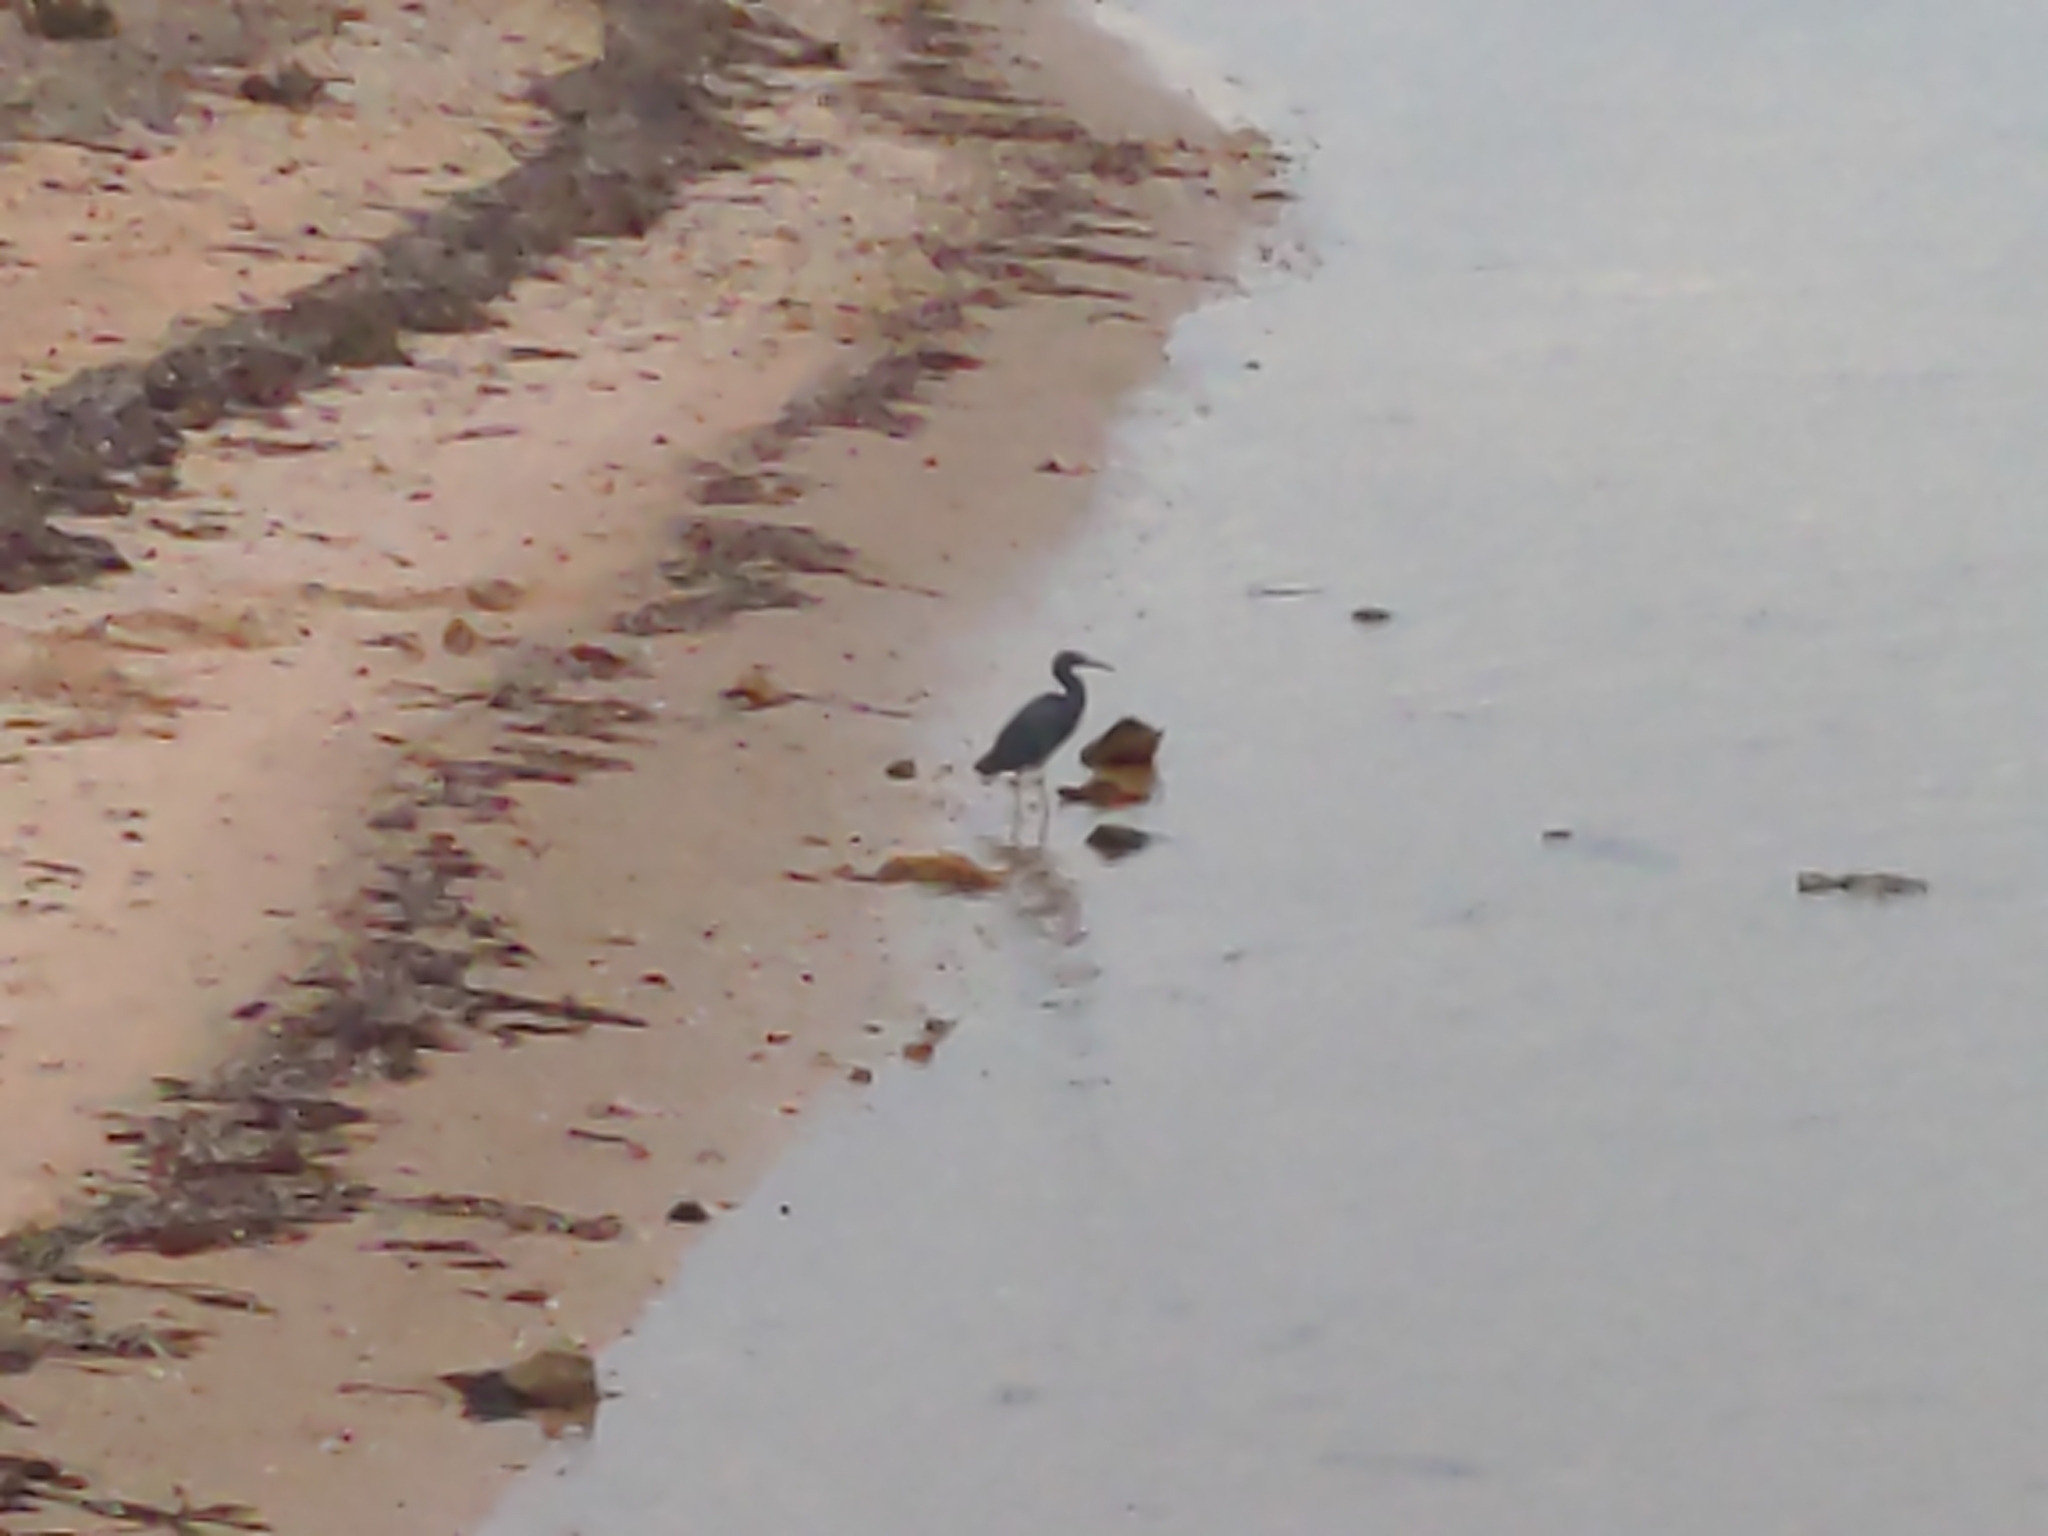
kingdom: Animalia
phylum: Chordata
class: Aves
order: Pelecaniformes
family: Ardeidae
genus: Egretta
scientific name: Egretta sacra
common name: Pacific reef heron
